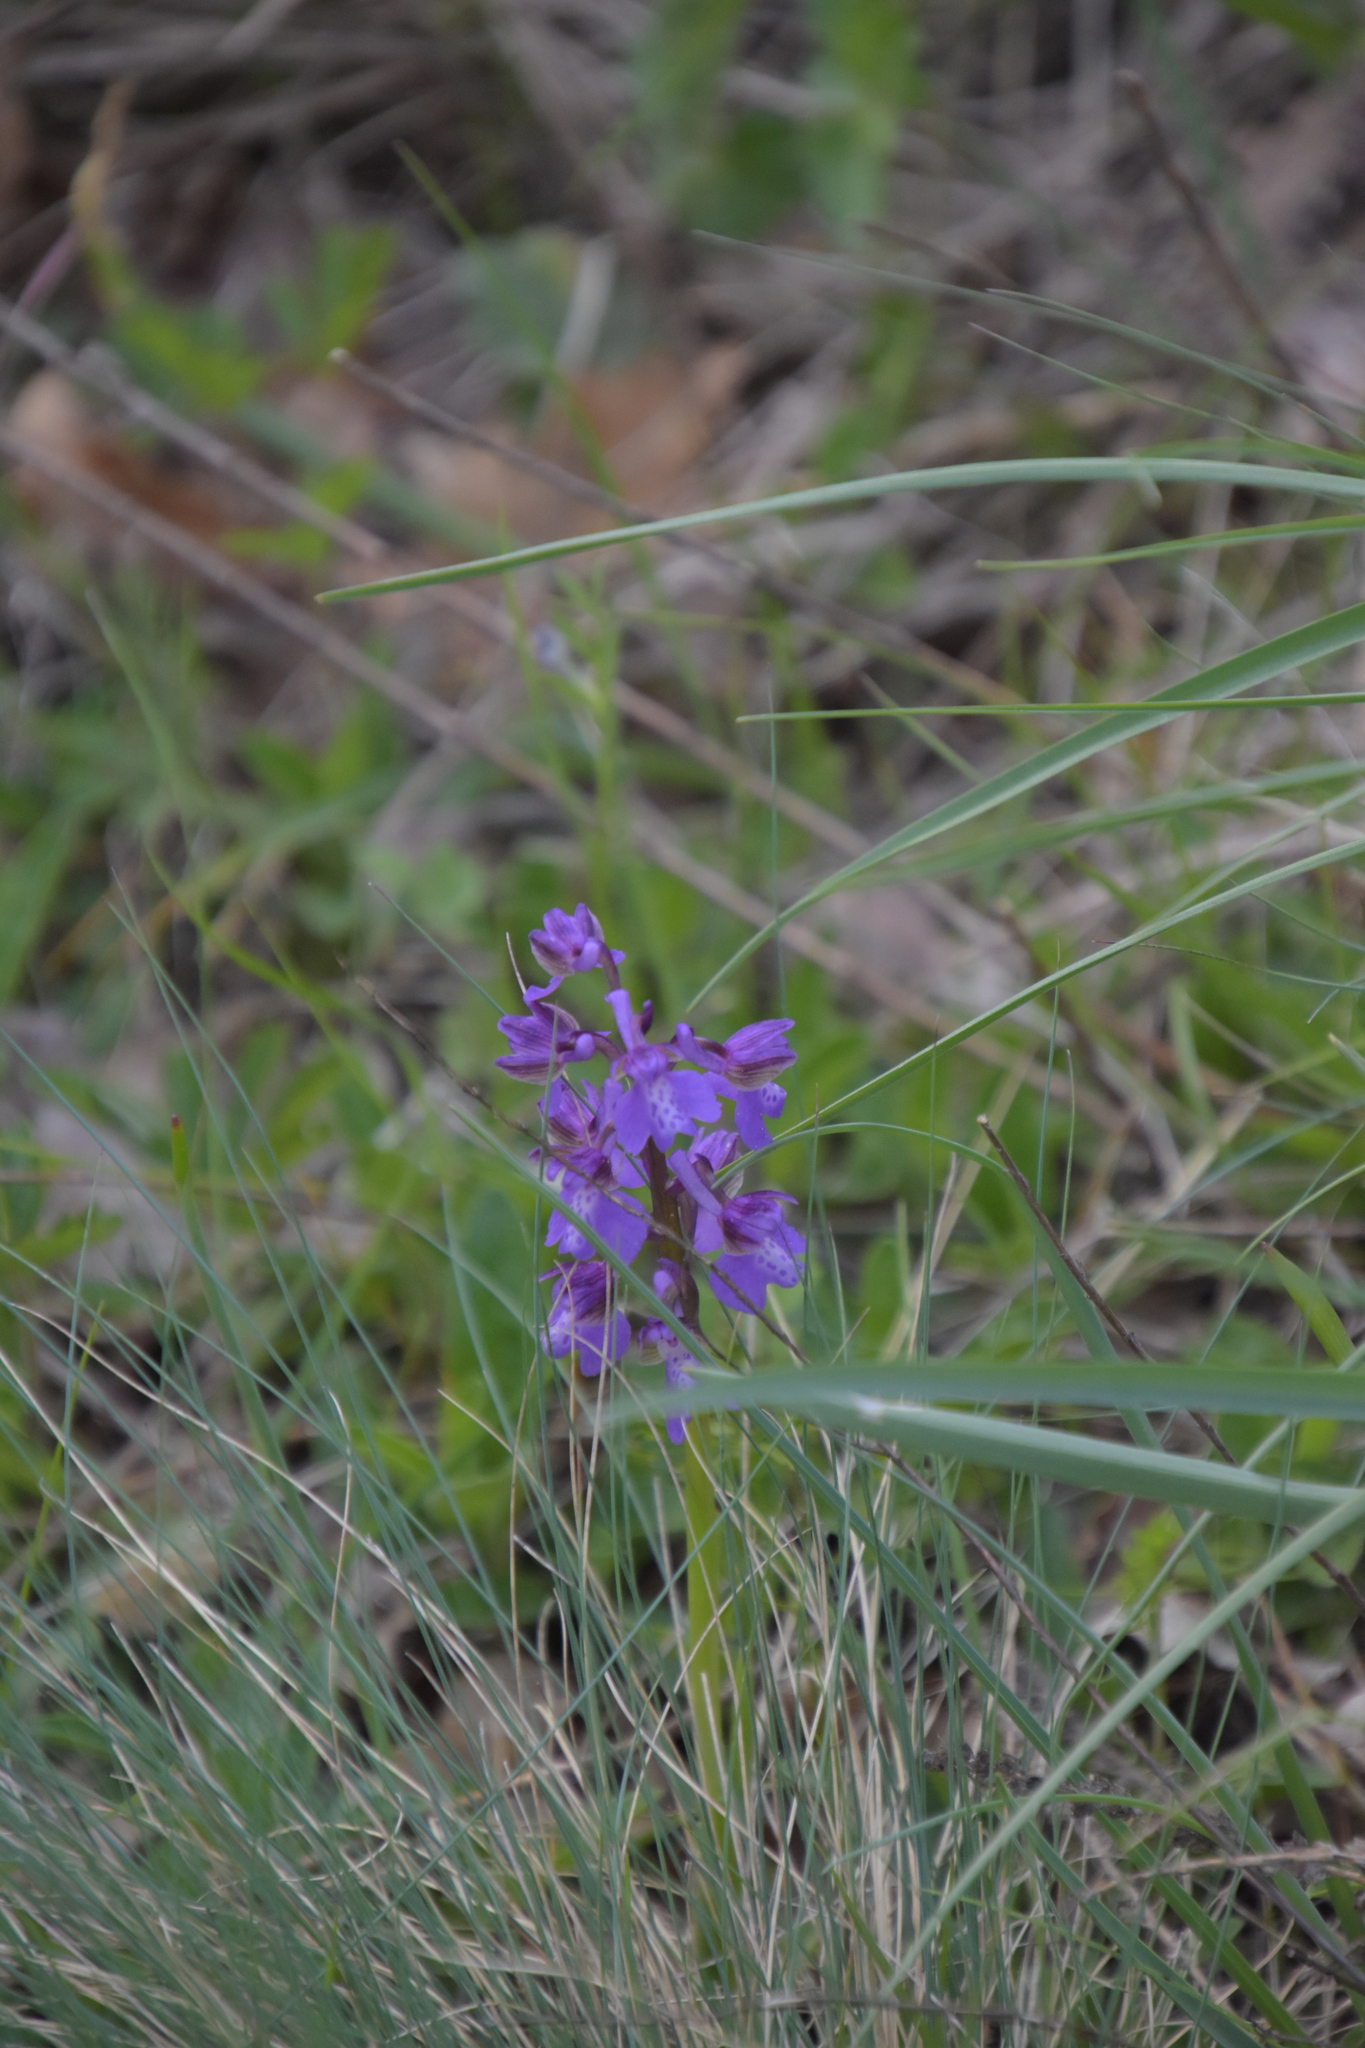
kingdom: Plantae
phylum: Tracheophyta
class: Liliopsida
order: Asparagales
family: Orchidaceae
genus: Anacamptis
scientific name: Anacamptis morio
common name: Green-winged orchid
